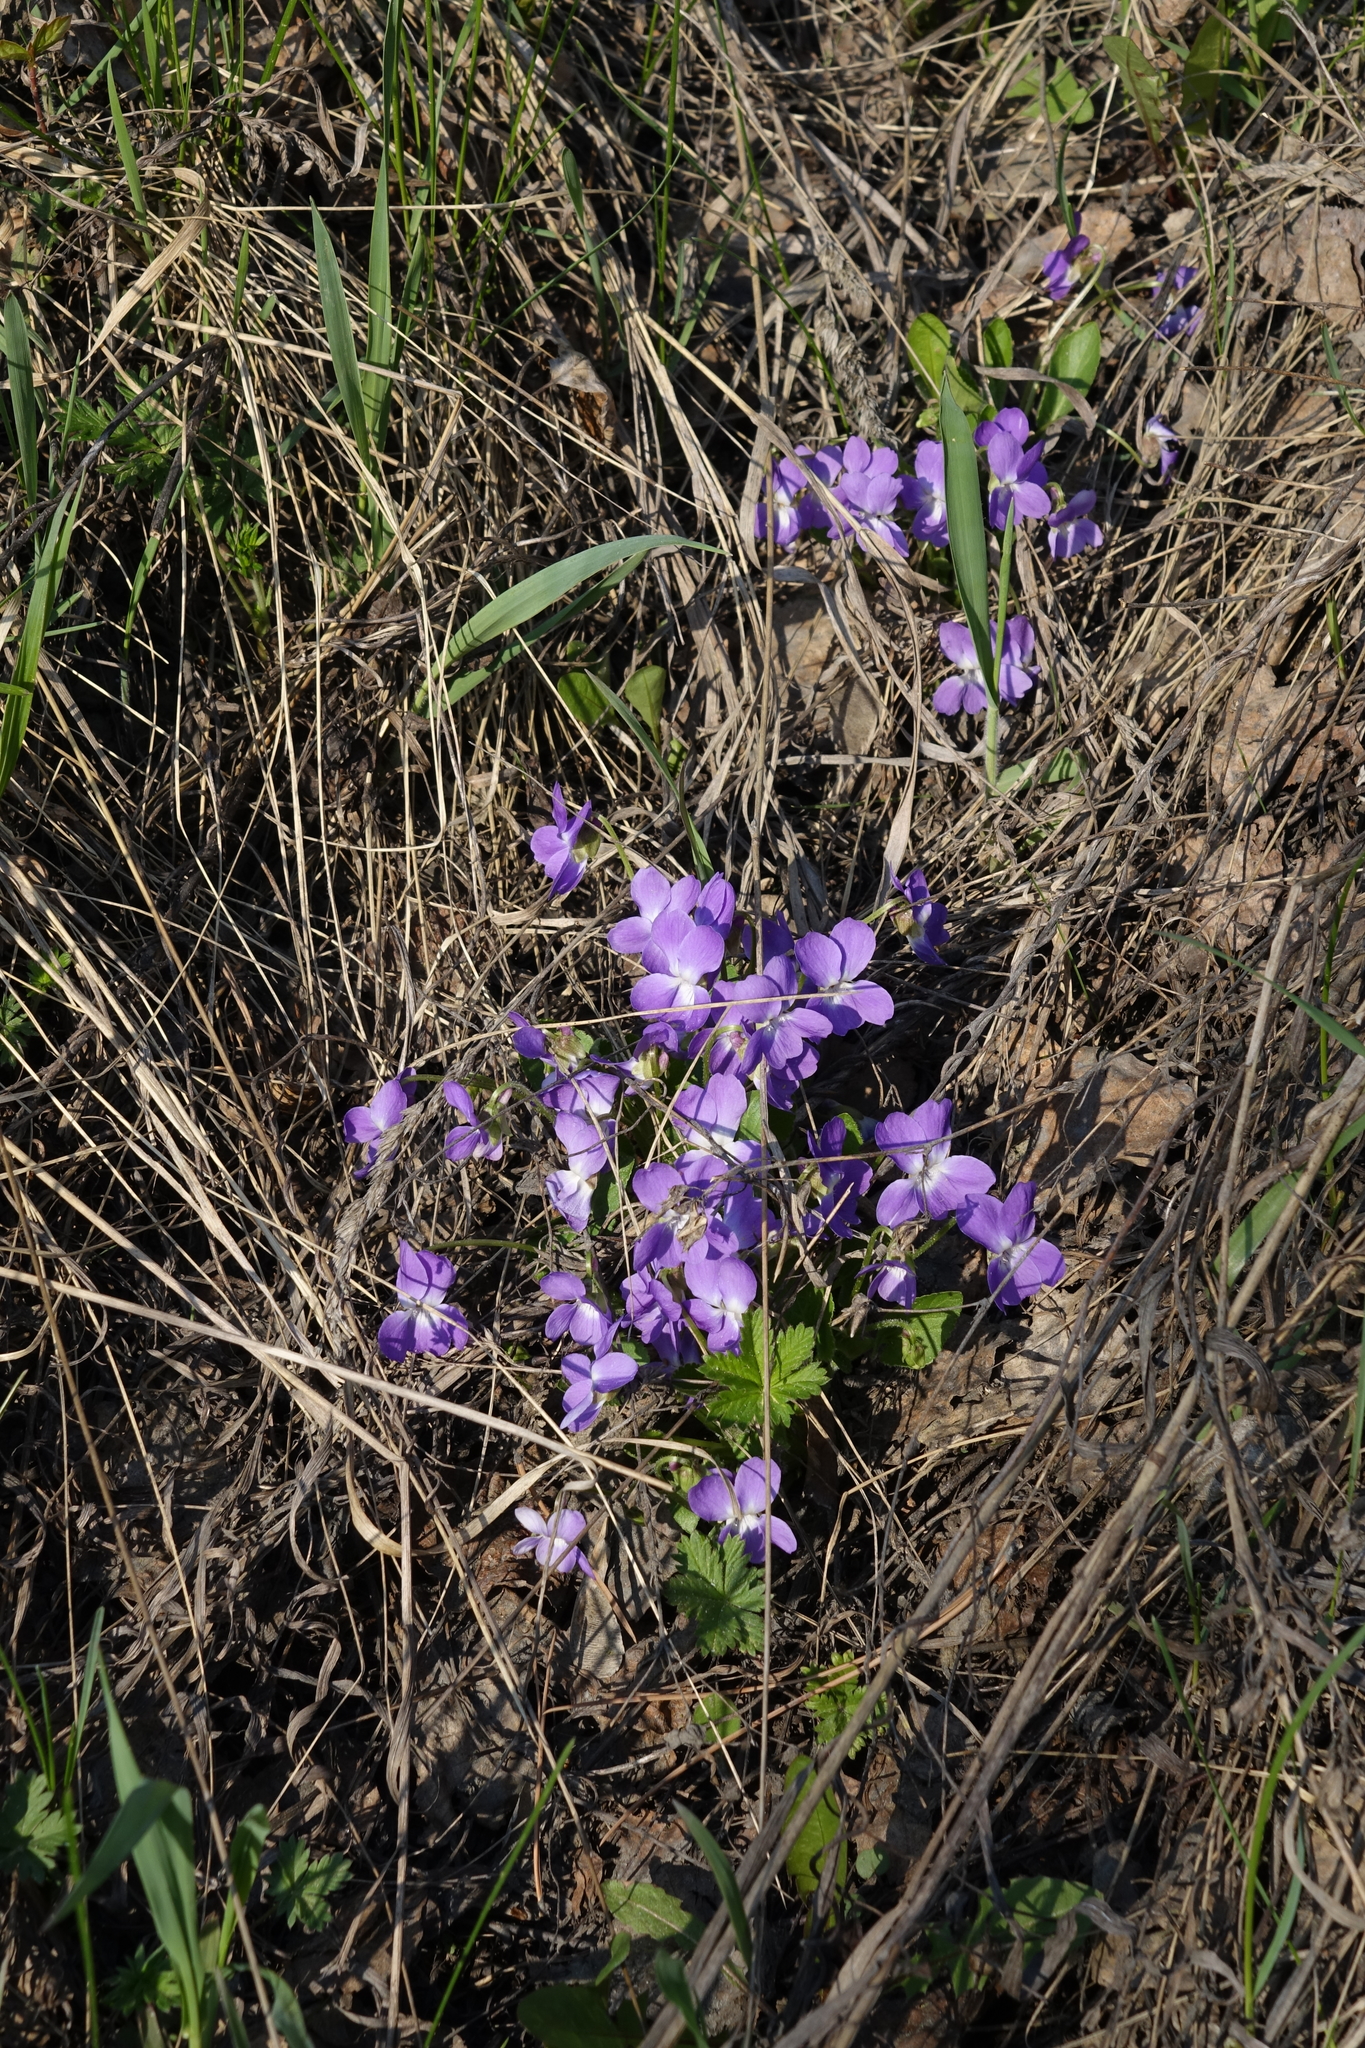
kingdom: Plantae
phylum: Tracheophyta
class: Magnoliopsida
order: Malpighiales
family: Violaceae
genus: Viola
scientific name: Viola hirta
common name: Hairy violet
